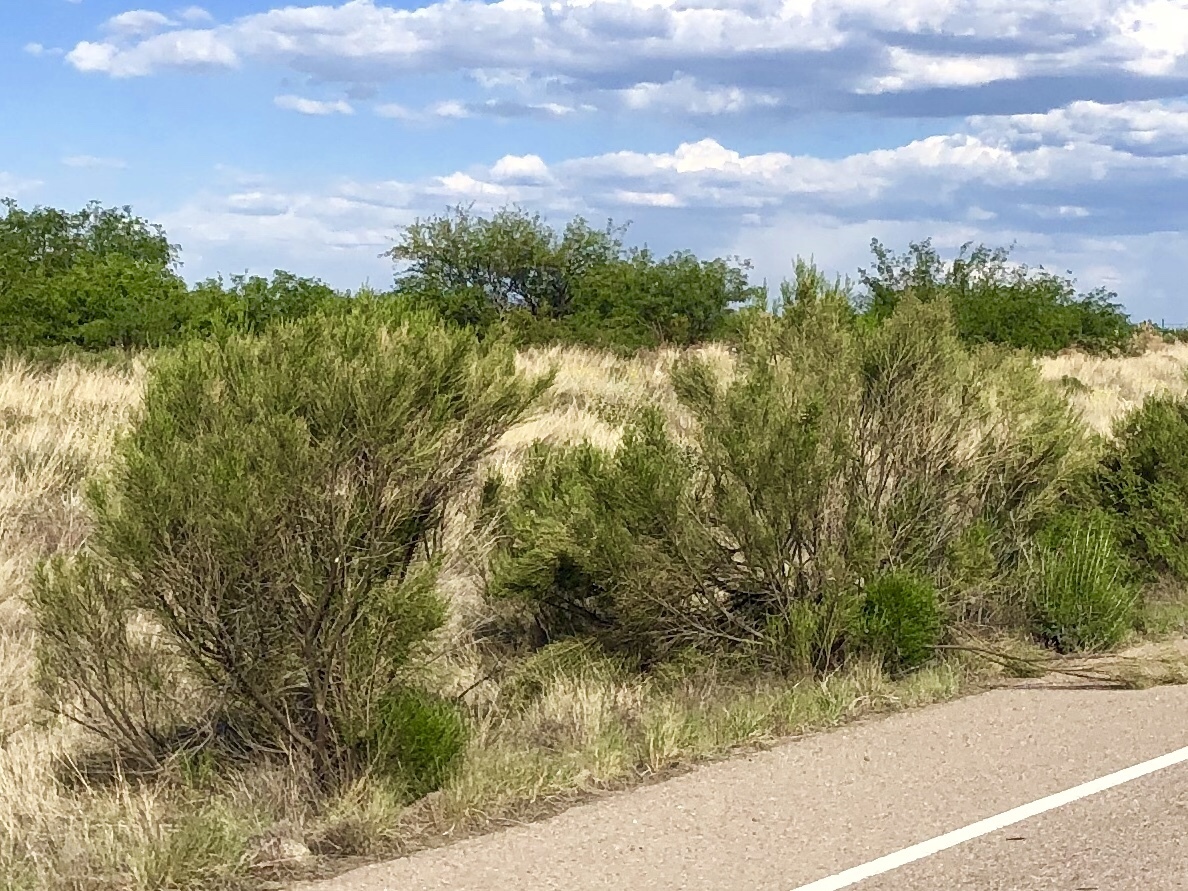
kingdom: Plantae
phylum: Tracheophyta
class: Magnoliopsida
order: Asterales
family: Asteraceae
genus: Baccharis
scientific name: Baccharis sarothroides
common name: Desert-broom
